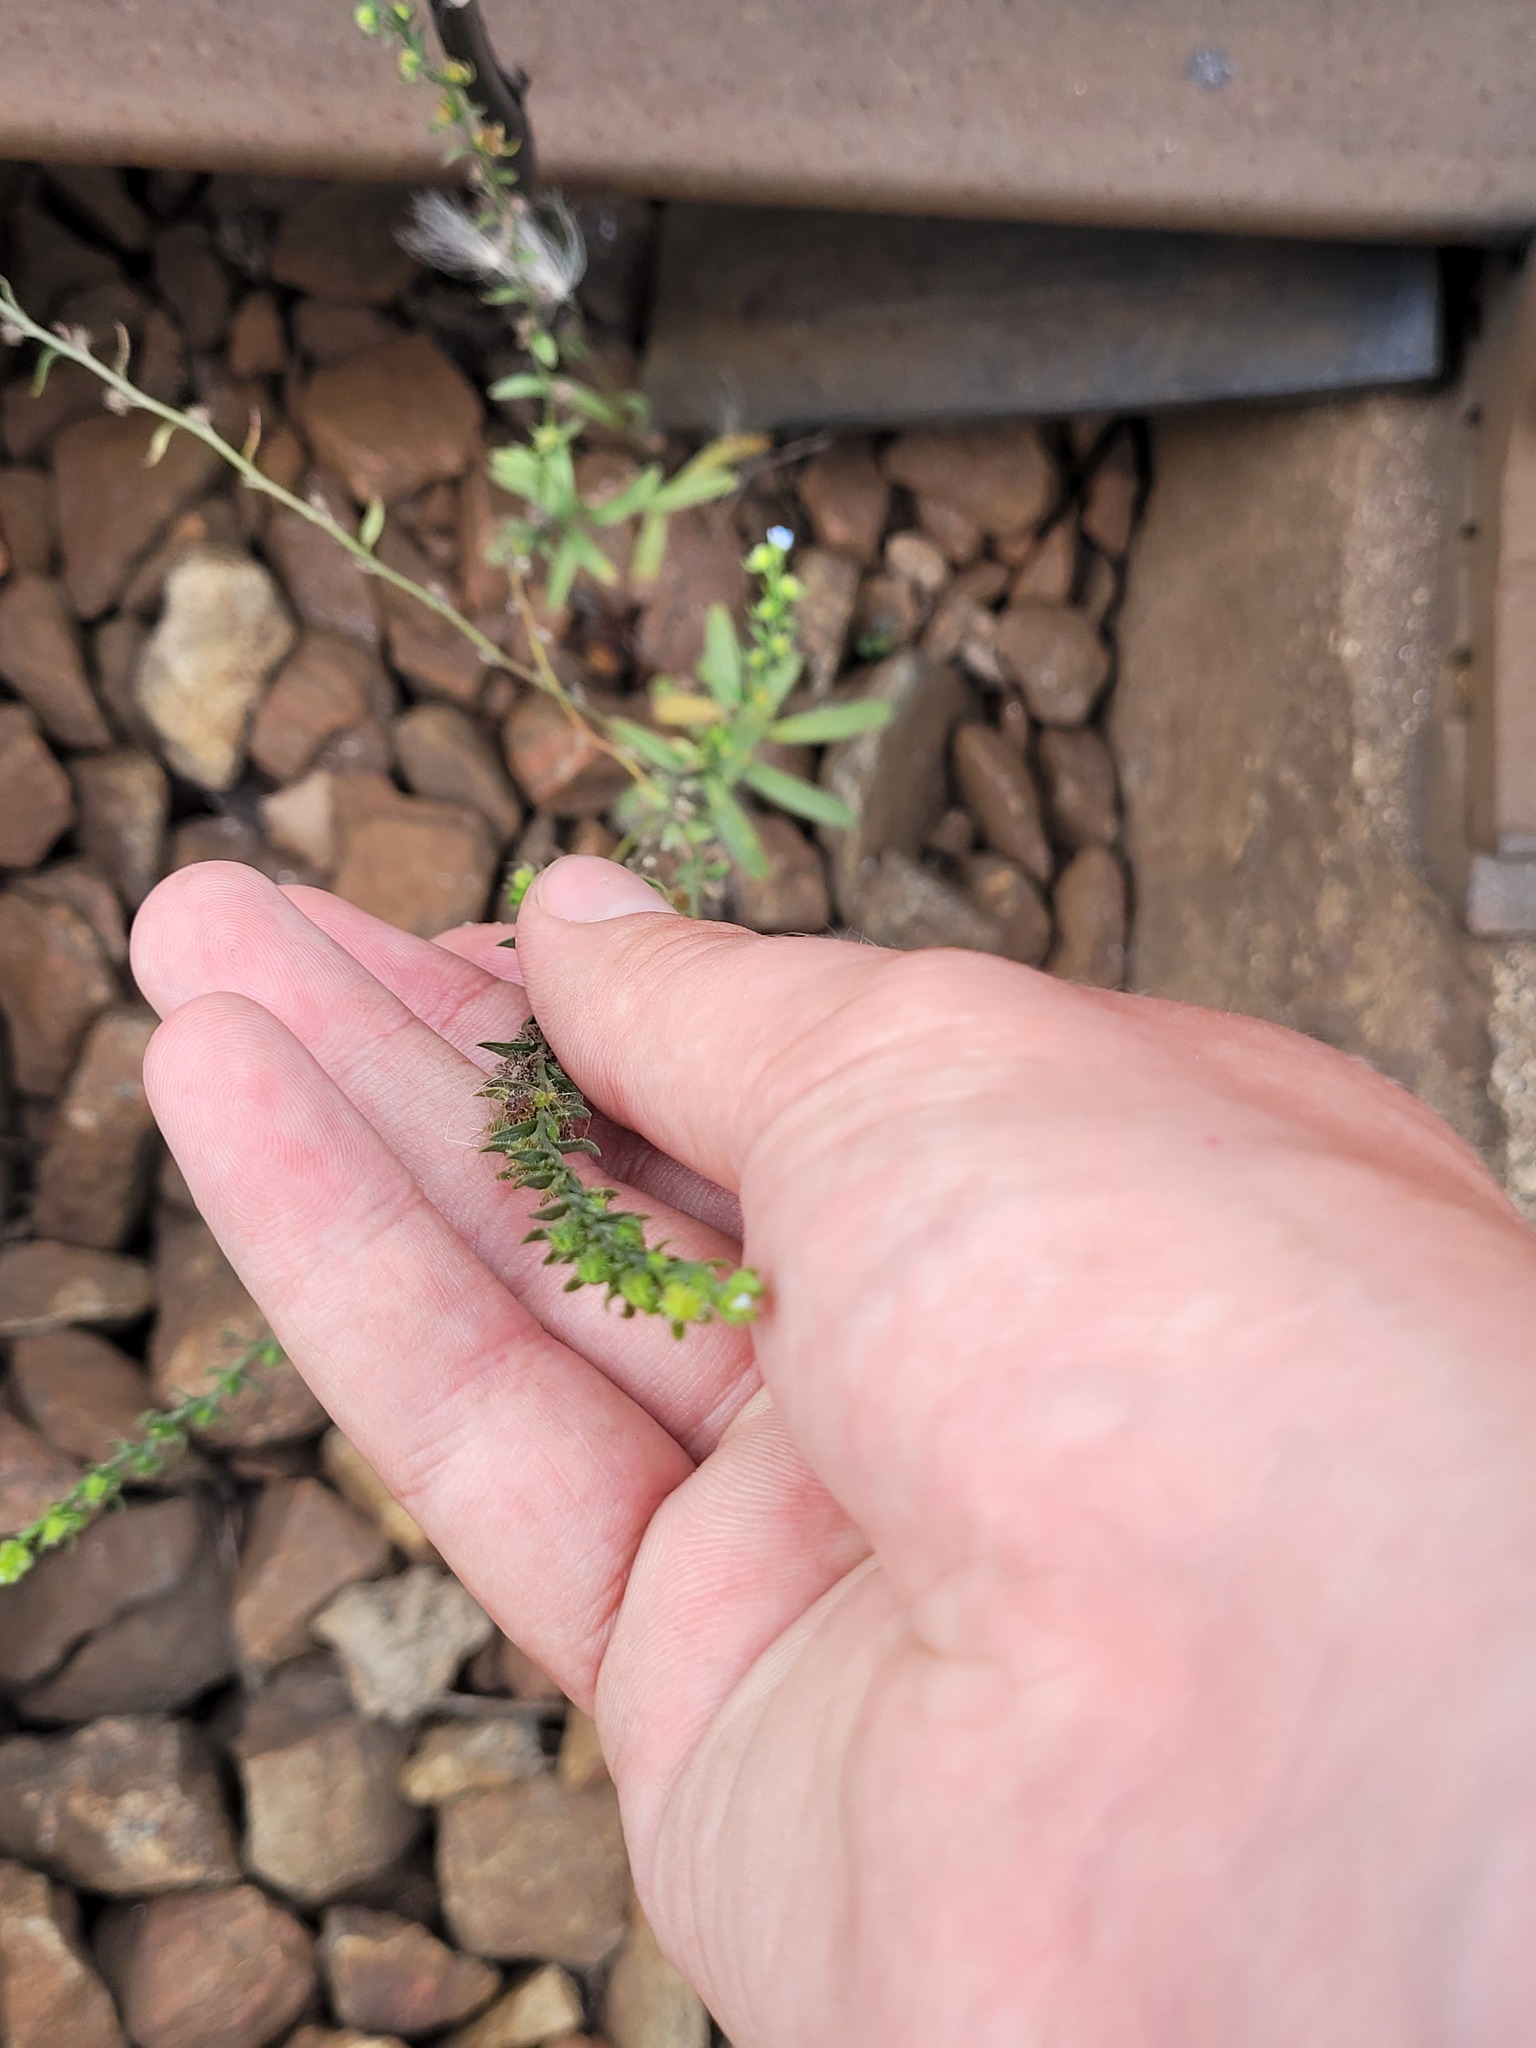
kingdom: Plantae
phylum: Tracheophyta
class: Magnoliopsida
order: Boraginales
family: Boraginaceae
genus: Lappula
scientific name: Lappula squarrosa
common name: European stickseed
